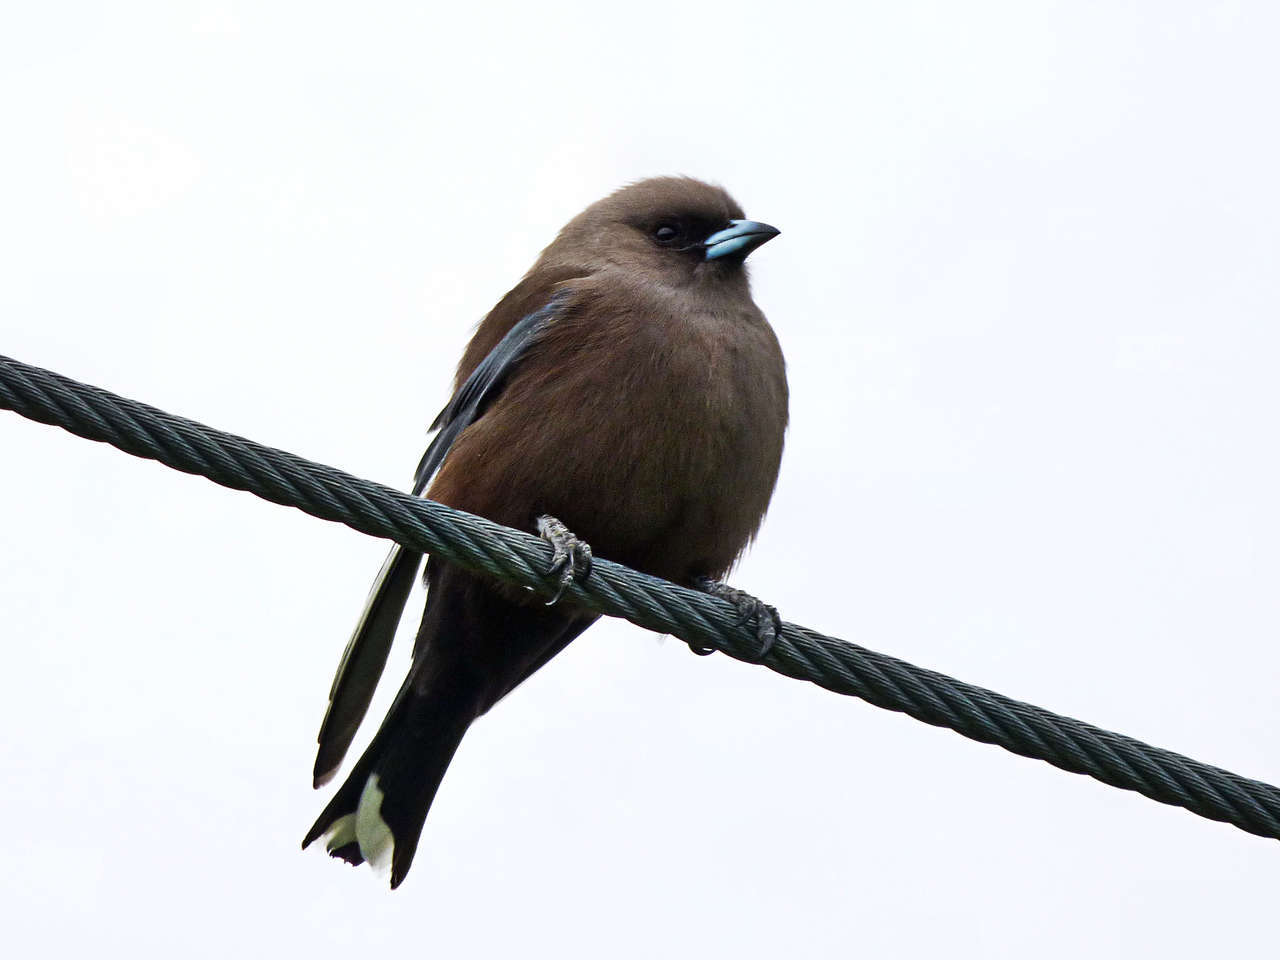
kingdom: Animalia
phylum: Chordata
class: Aves
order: Passeriformes
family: Artamidae
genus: Artamus
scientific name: Artamus cyanopterus
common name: Dusky woodswallow
